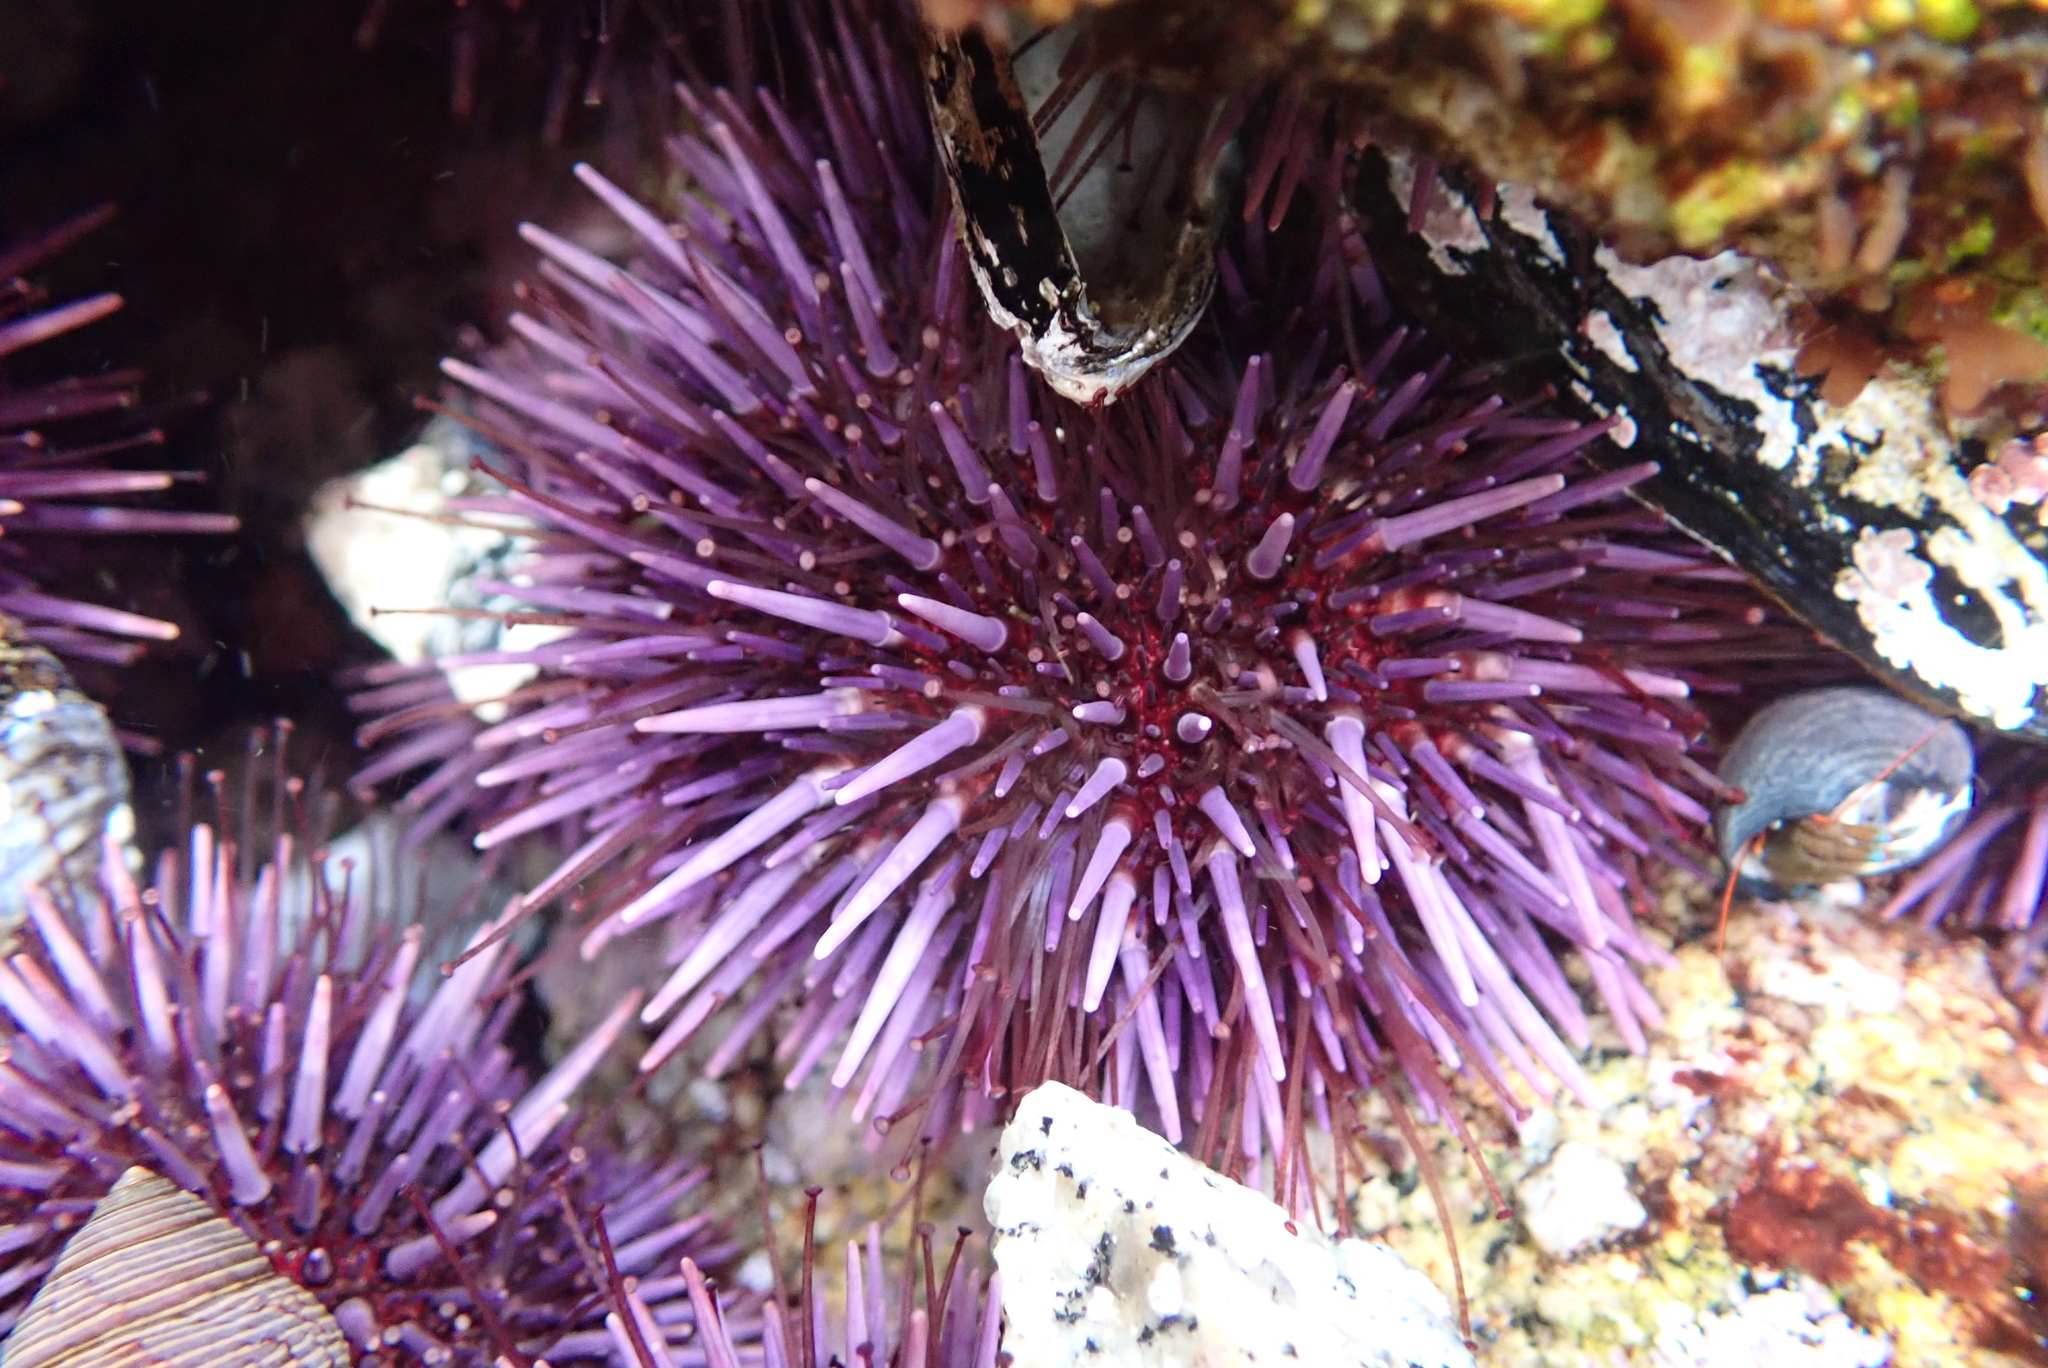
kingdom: Animalia
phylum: Echinodermata
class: Echinoidea
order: Camarodonta
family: Strongylocentrotidae
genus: Strongylocentrotus
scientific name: Strongylocentrotus purpuratus
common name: Purple sea urchin
